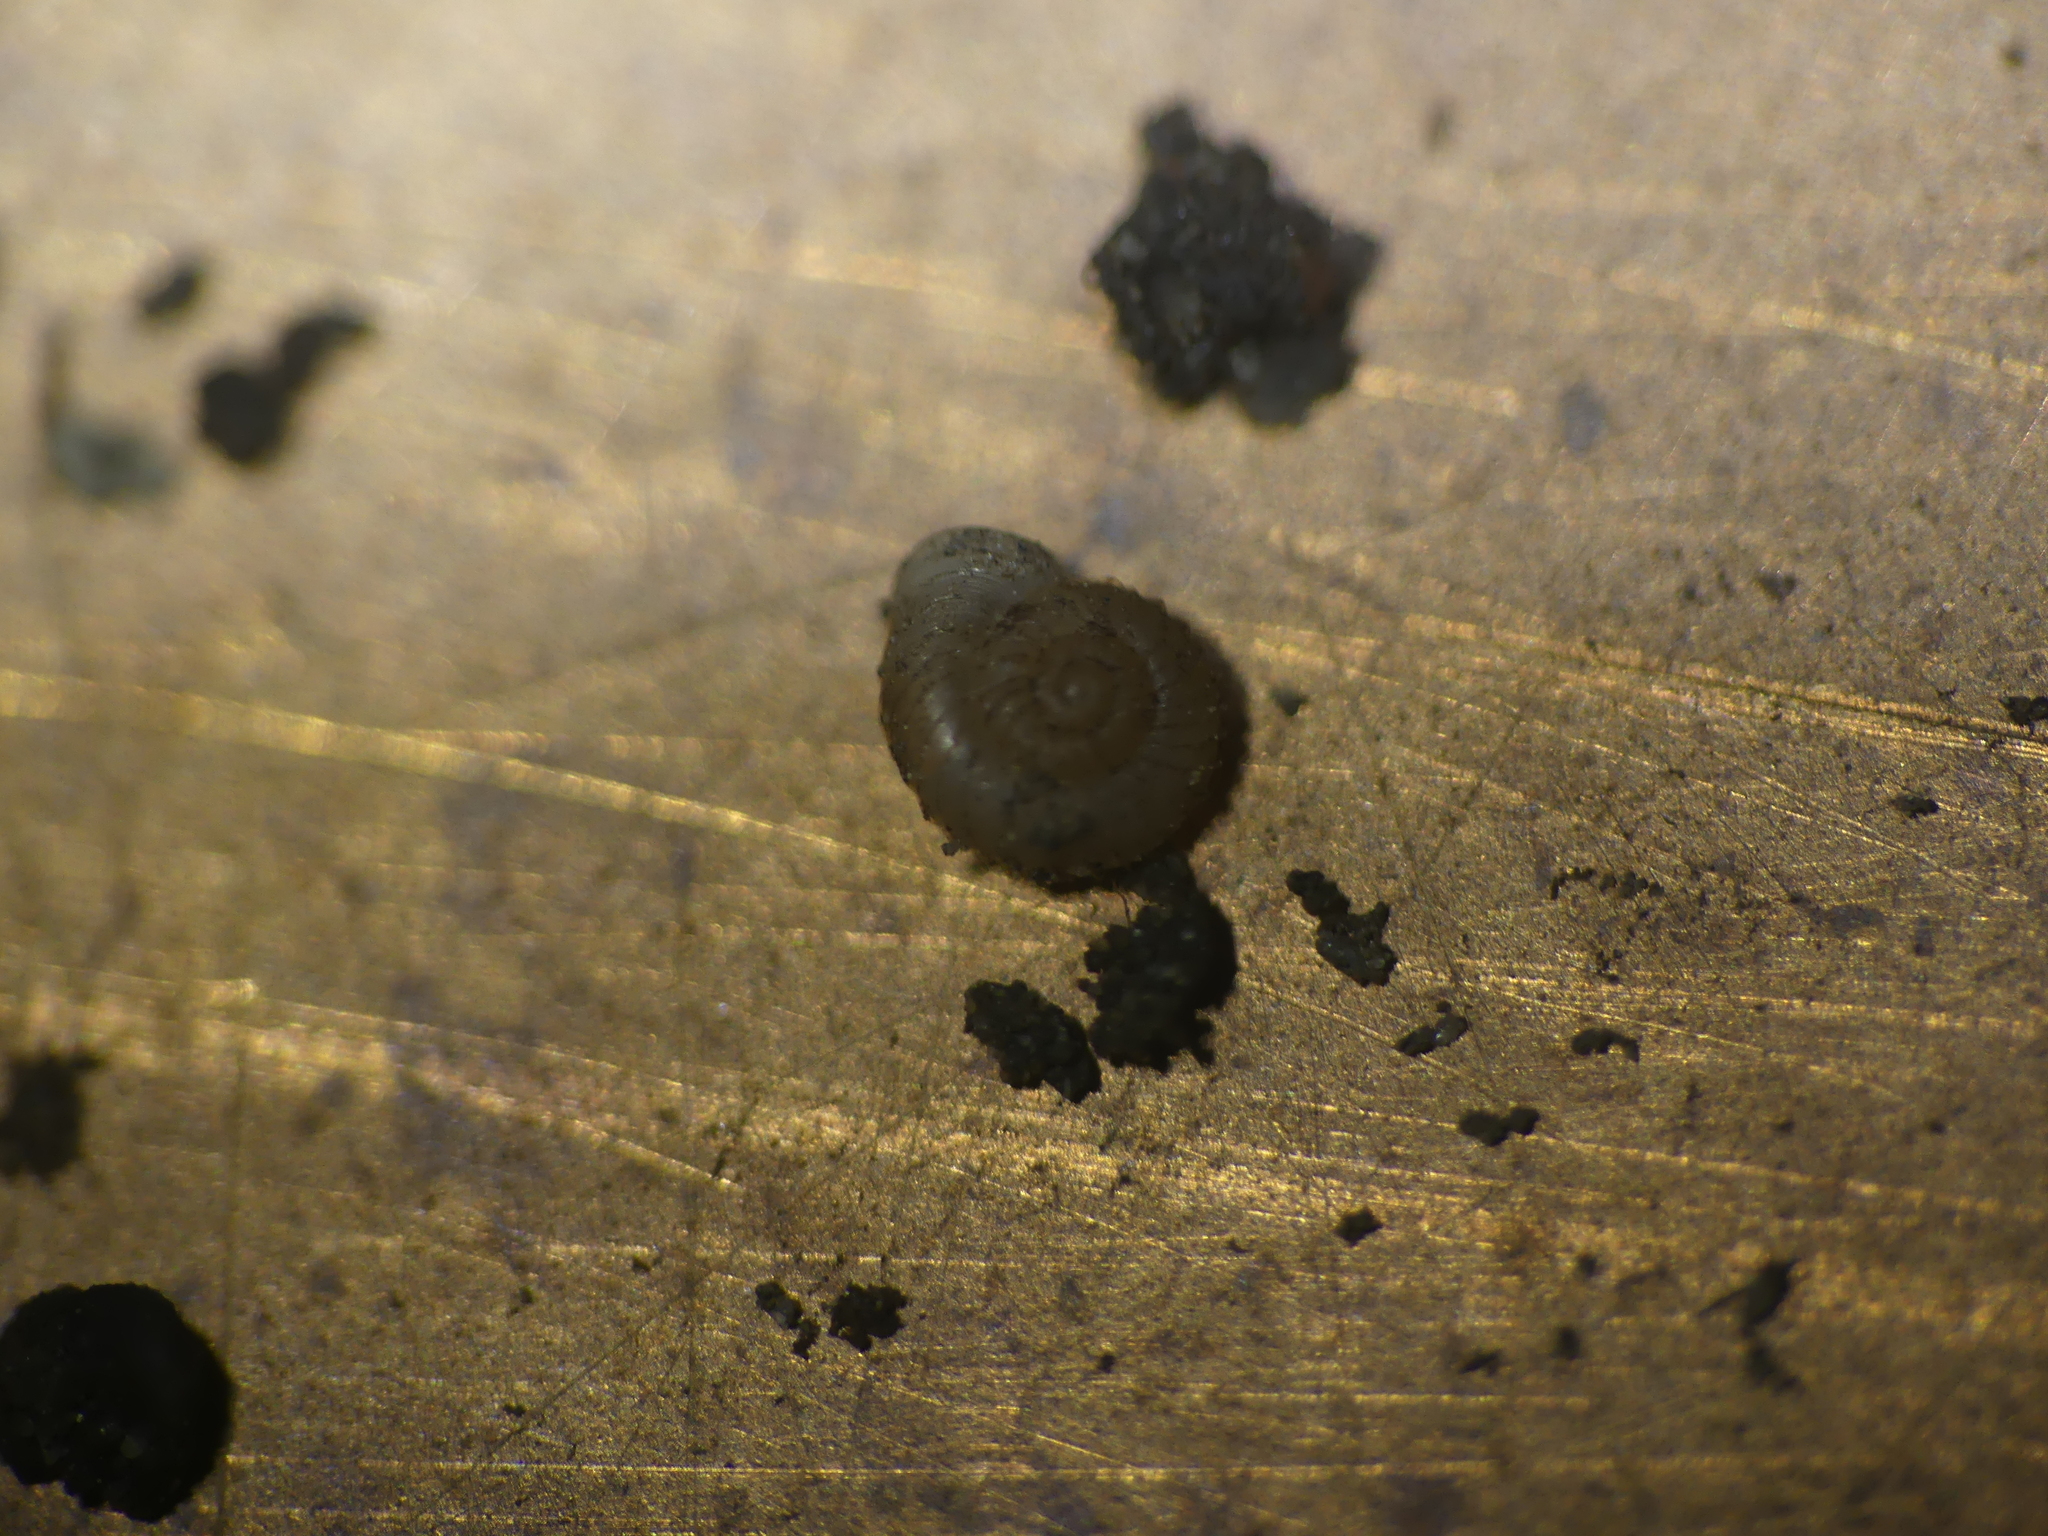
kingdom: Animalia
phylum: Mollusca
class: Gastropoda
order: Stylommatophora
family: Valloniidae
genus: Vallonia
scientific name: Vallonia costata
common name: Ribbed grass snail
